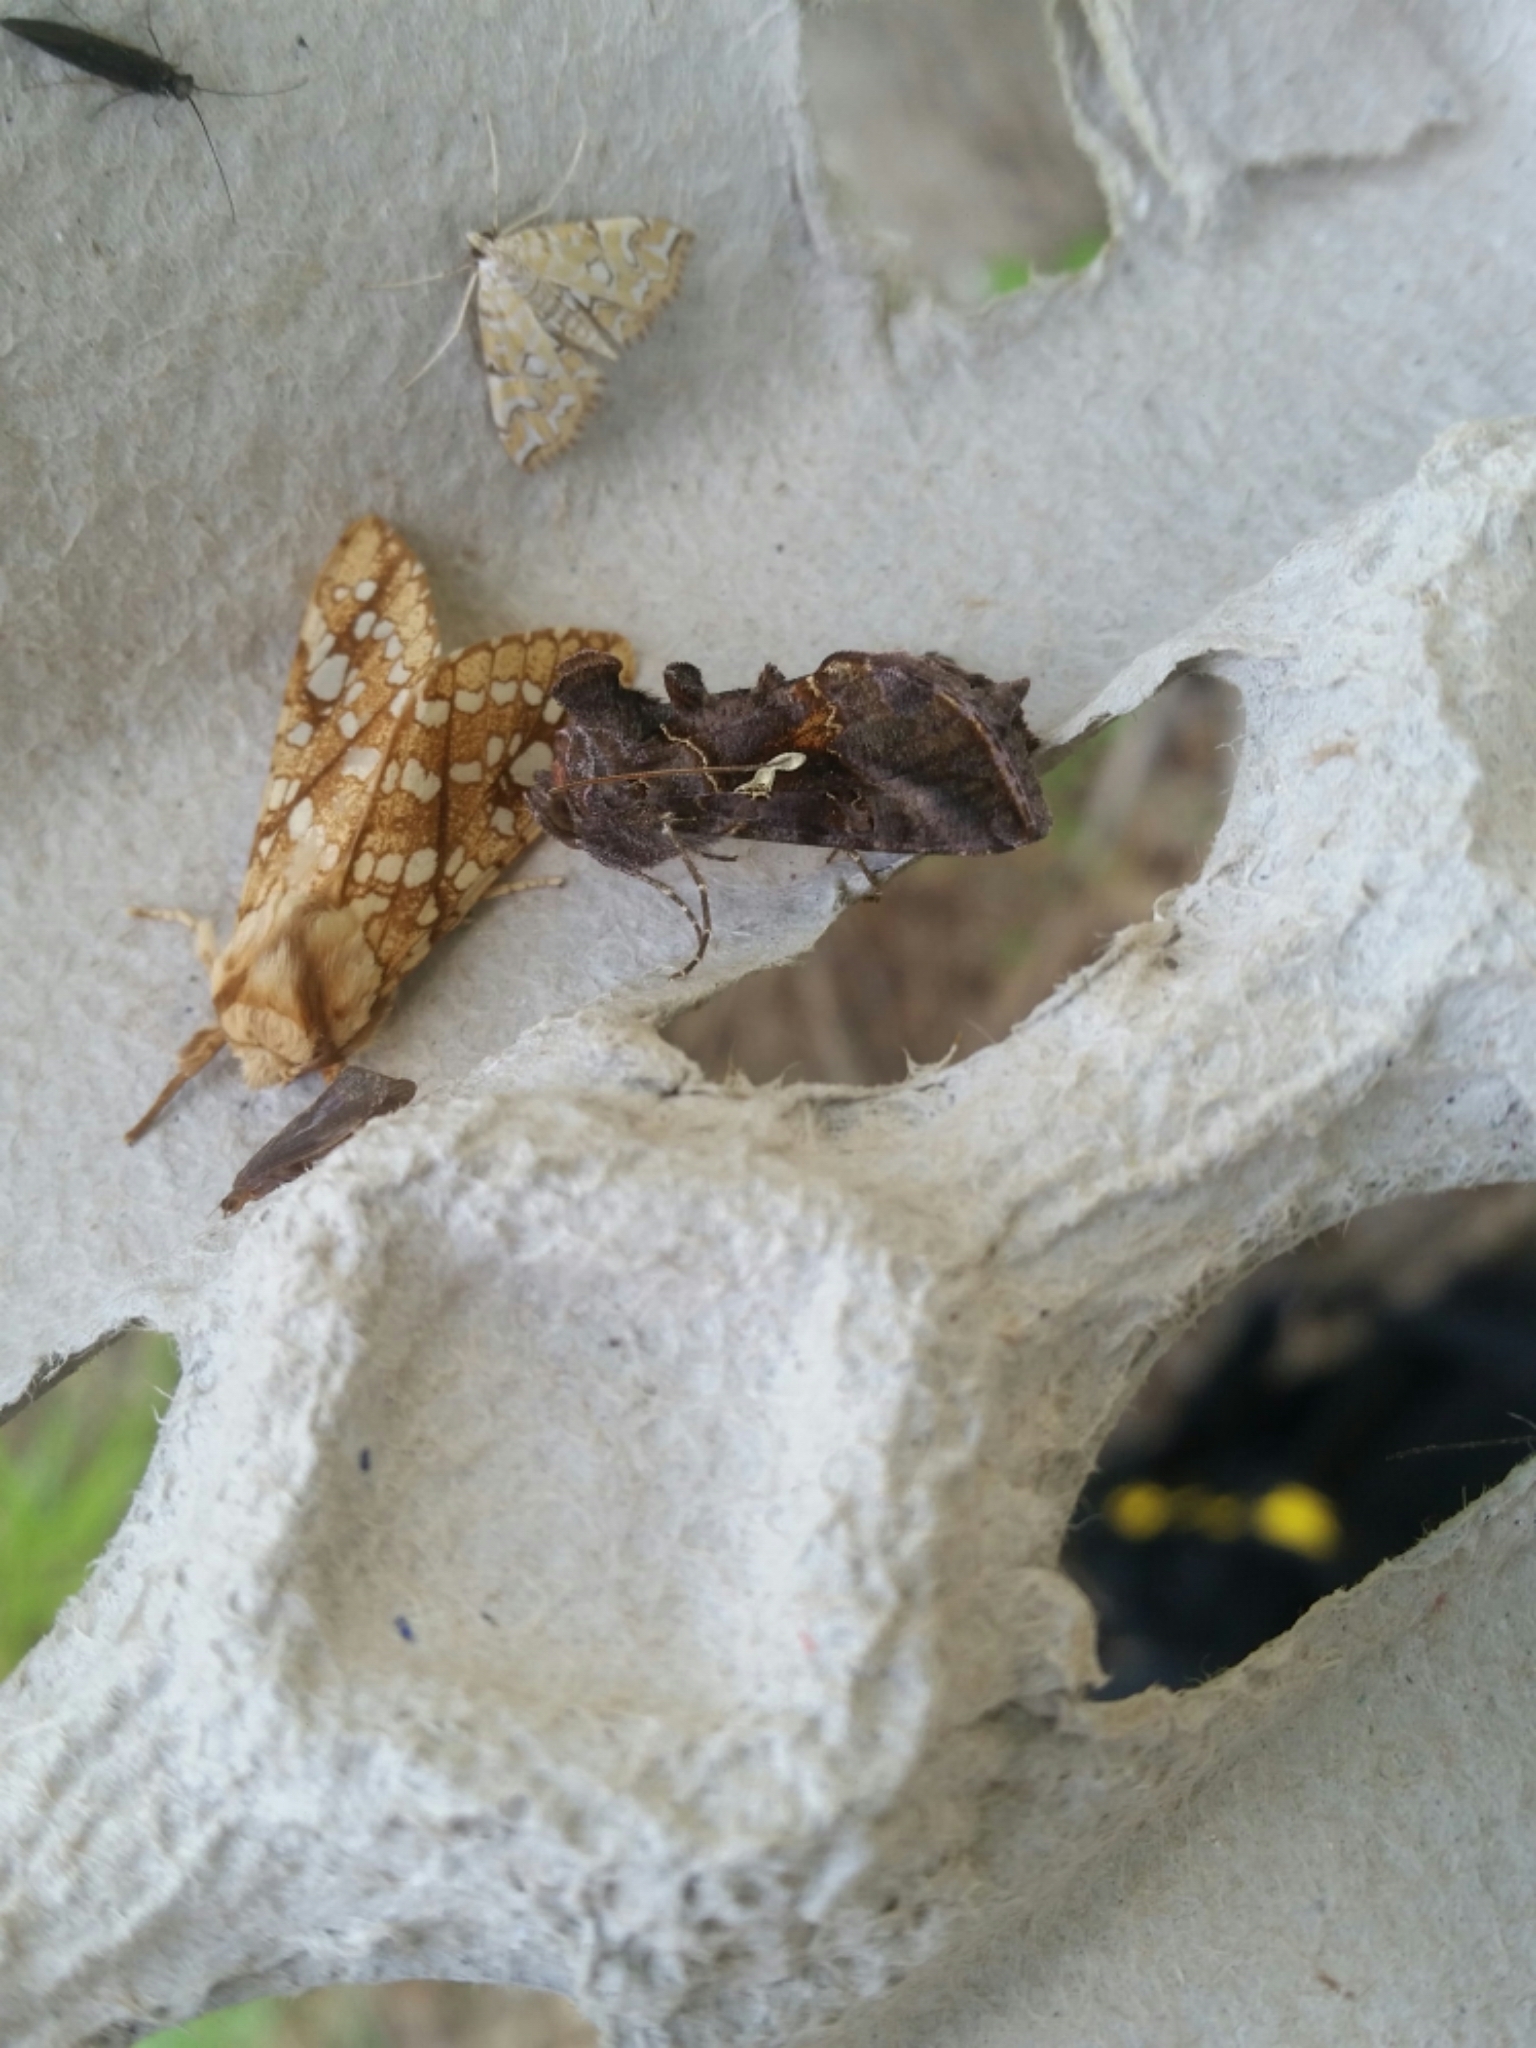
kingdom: Animalia
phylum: Arthropoda
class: Insecta
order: Lepidoptera
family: Noctuidae
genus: Autographa
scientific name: Autographa precationis
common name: Common looper moth
